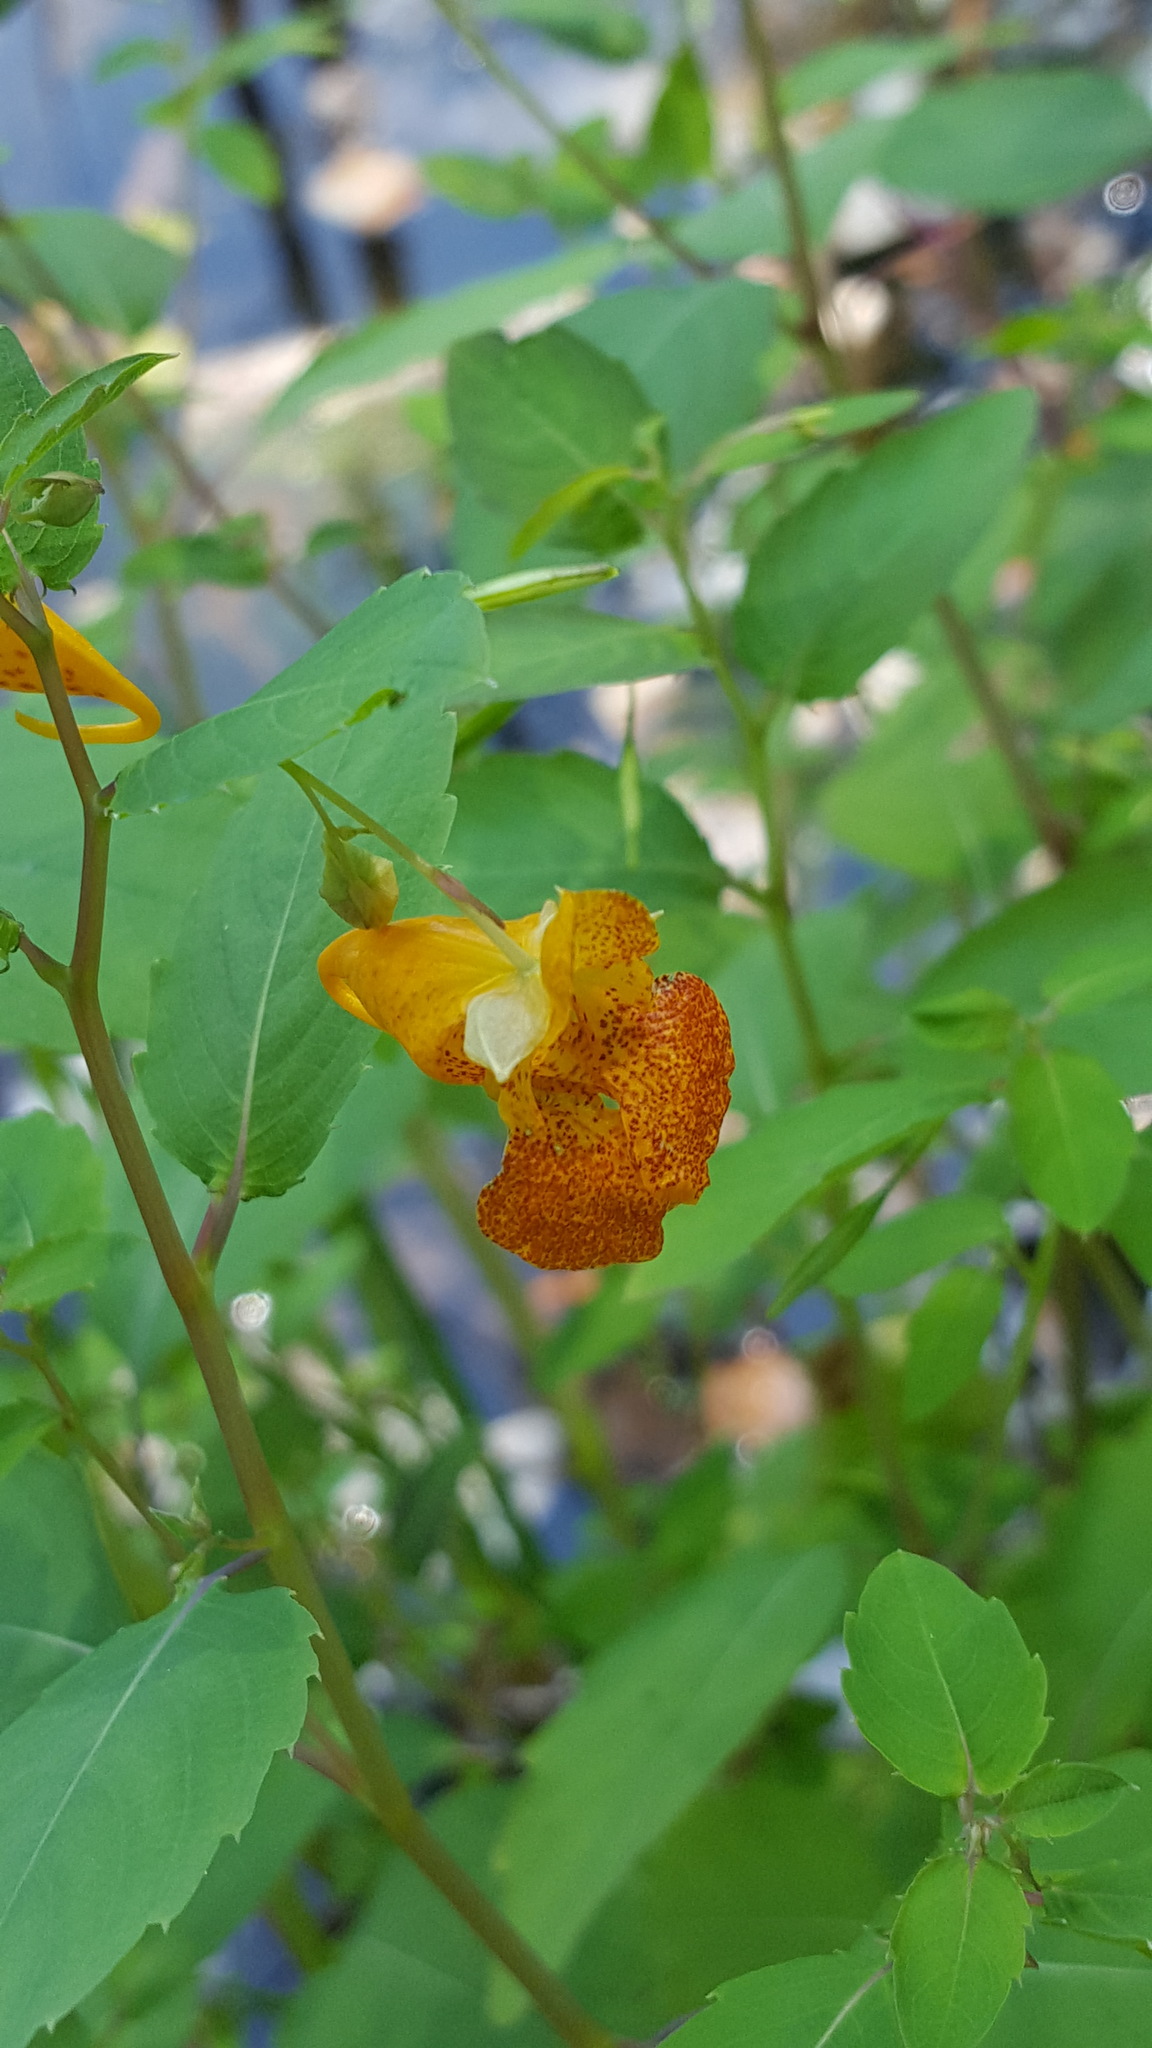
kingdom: Plantae
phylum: Tracheophyta
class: Magnoliopsida
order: Ericales
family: Balsaminaceae
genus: Impatiens
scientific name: Impatiens capensis
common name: Orange balsam
